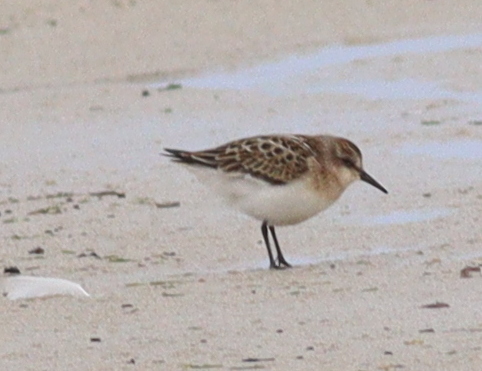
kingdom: Animalia
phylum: Chordata
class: Aves
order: Charadriiformes
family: Scolopacidae
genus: Calidris
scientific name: Calidris minuta
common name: Little stint
